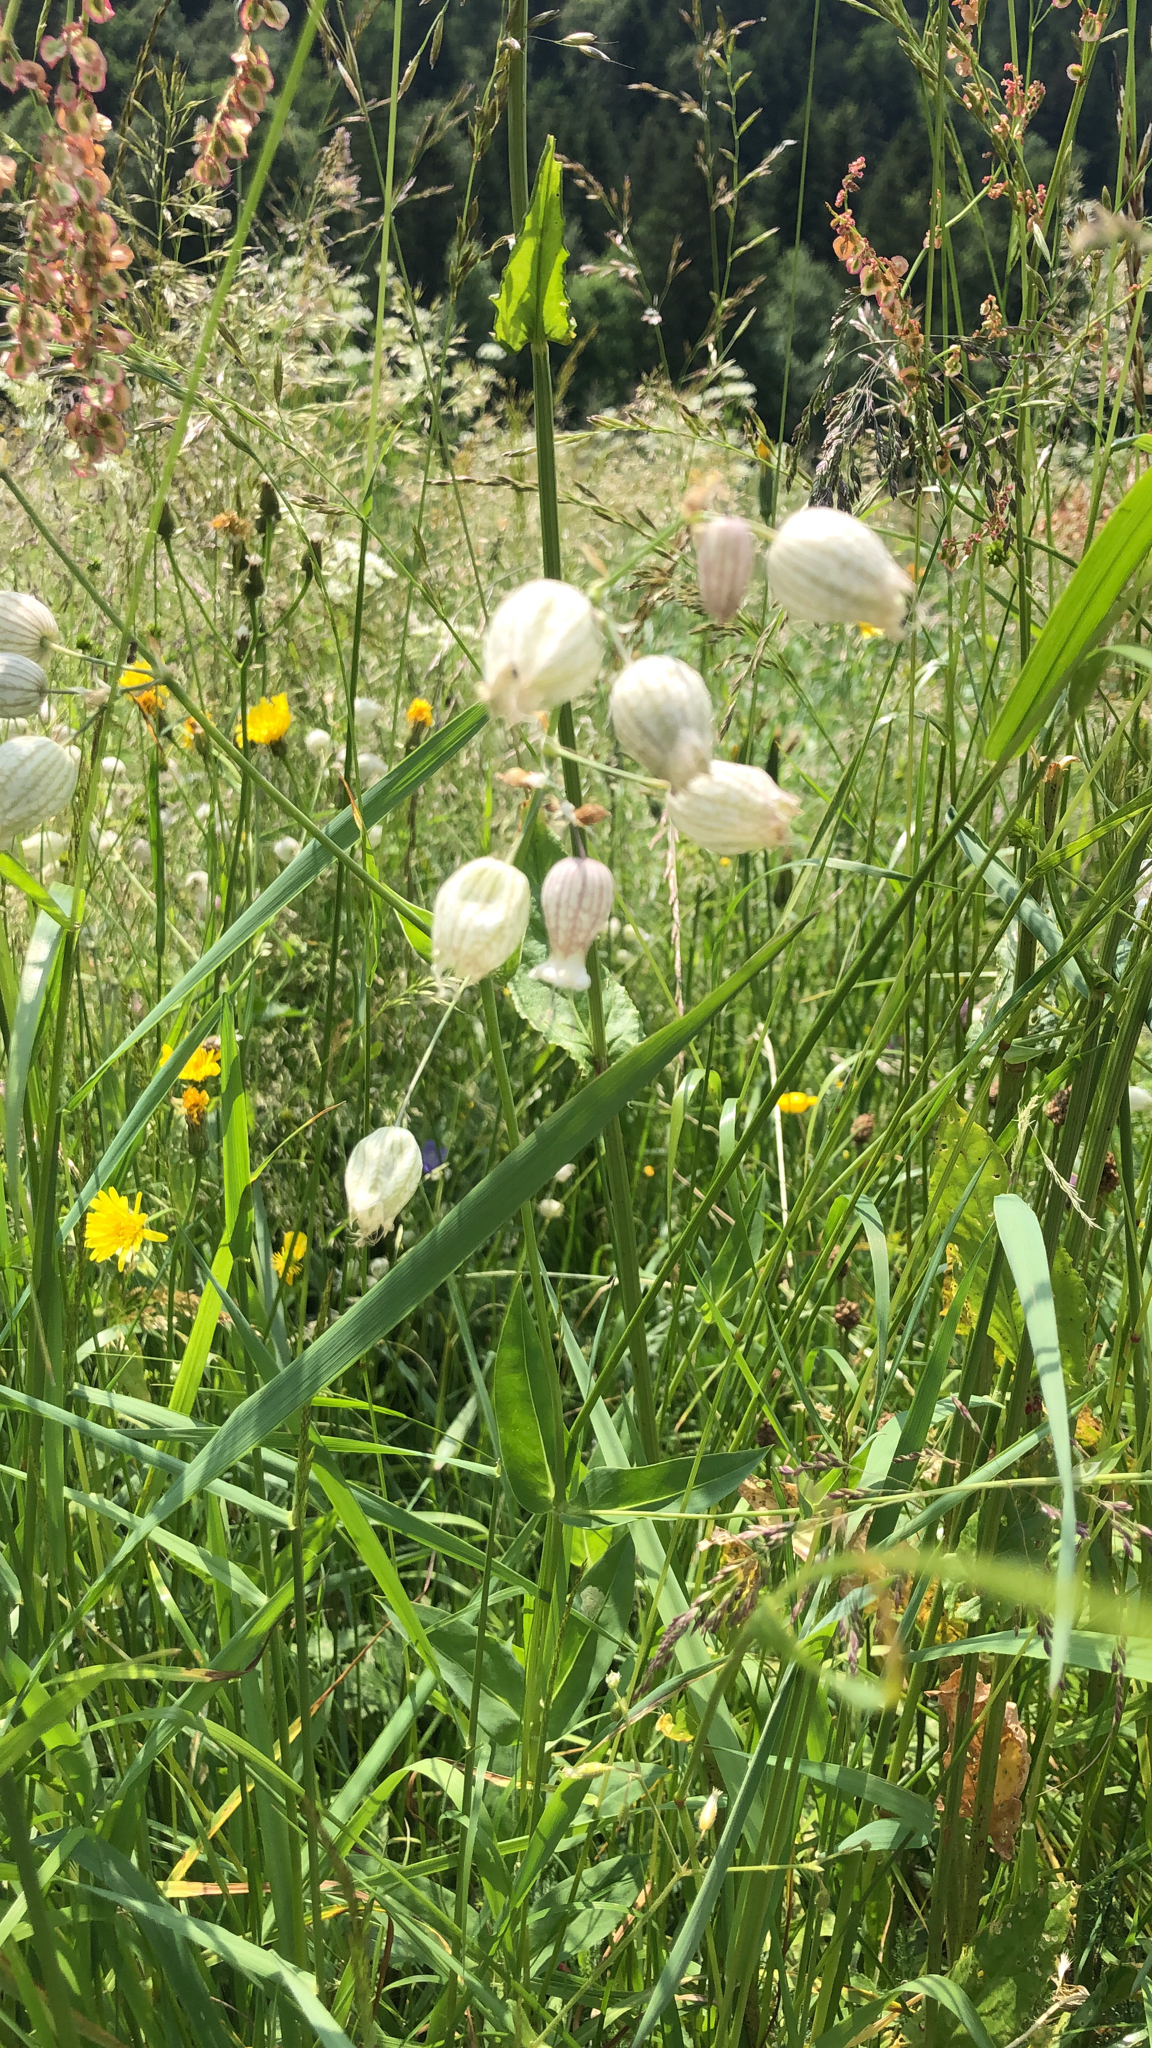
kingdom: Plantae
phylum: Tracheophyta
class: Magnoliopsida
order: Caryophyllales
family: Caryophyllaceae
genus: Silene
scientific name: Silene vulgaris
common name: Bladder campion
